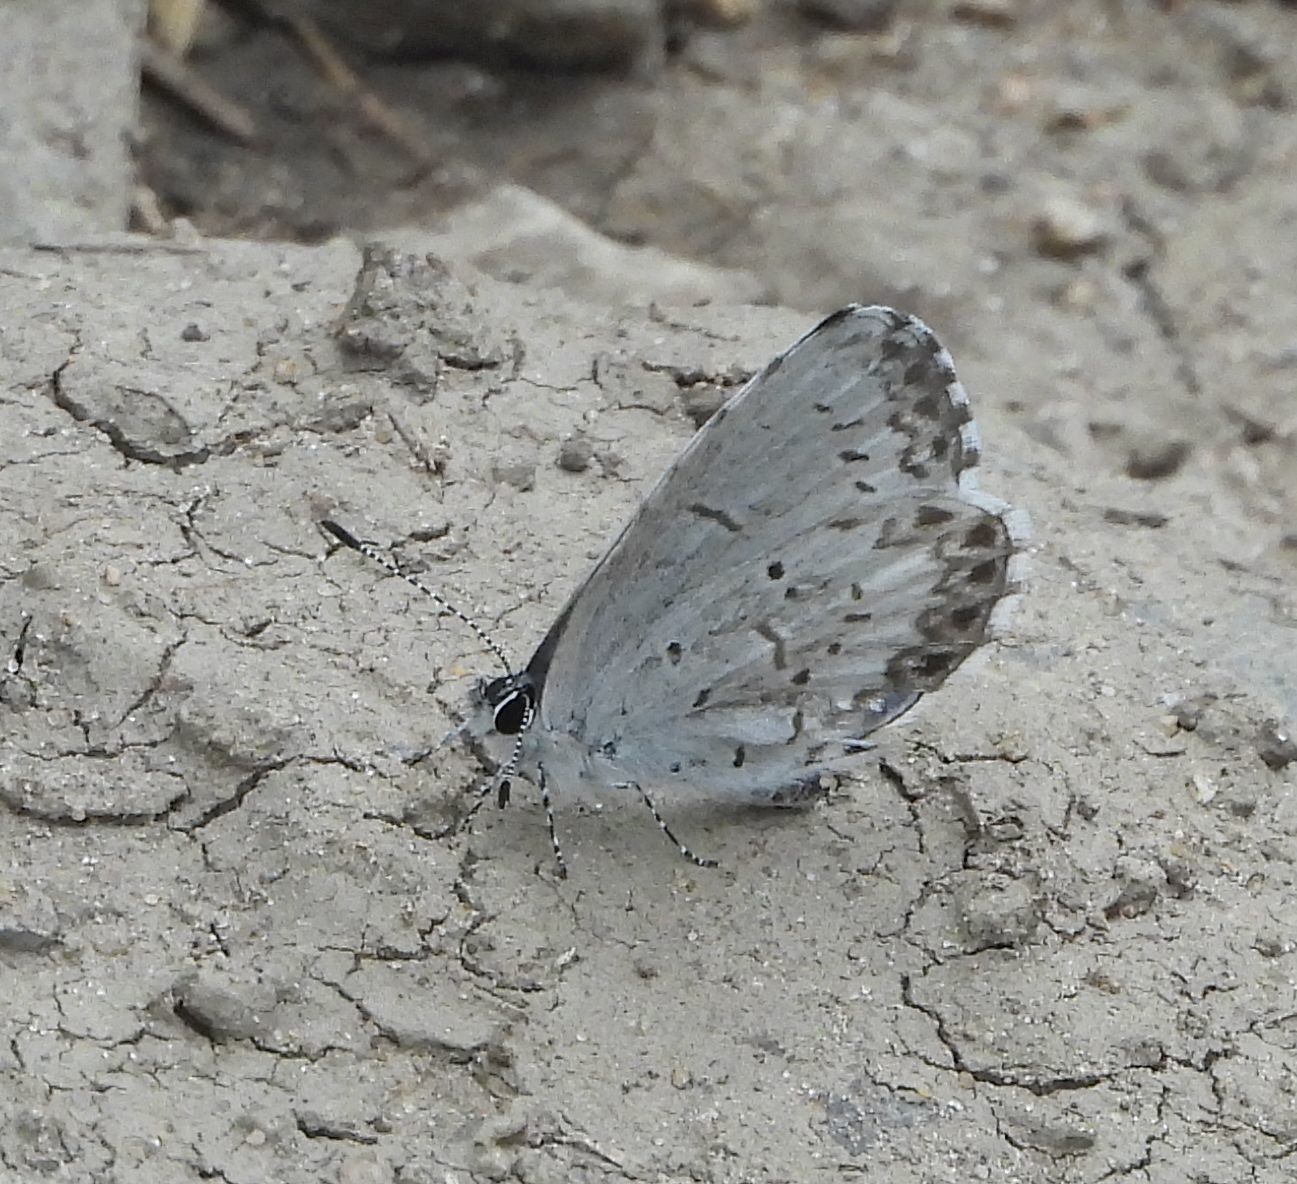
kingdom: Animalia
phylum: Arthropoda
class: Insecta
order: Lepidoptera
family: Lycaenidae
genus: Celastrina
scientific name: Celastrina lucia
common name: Lucia azure
